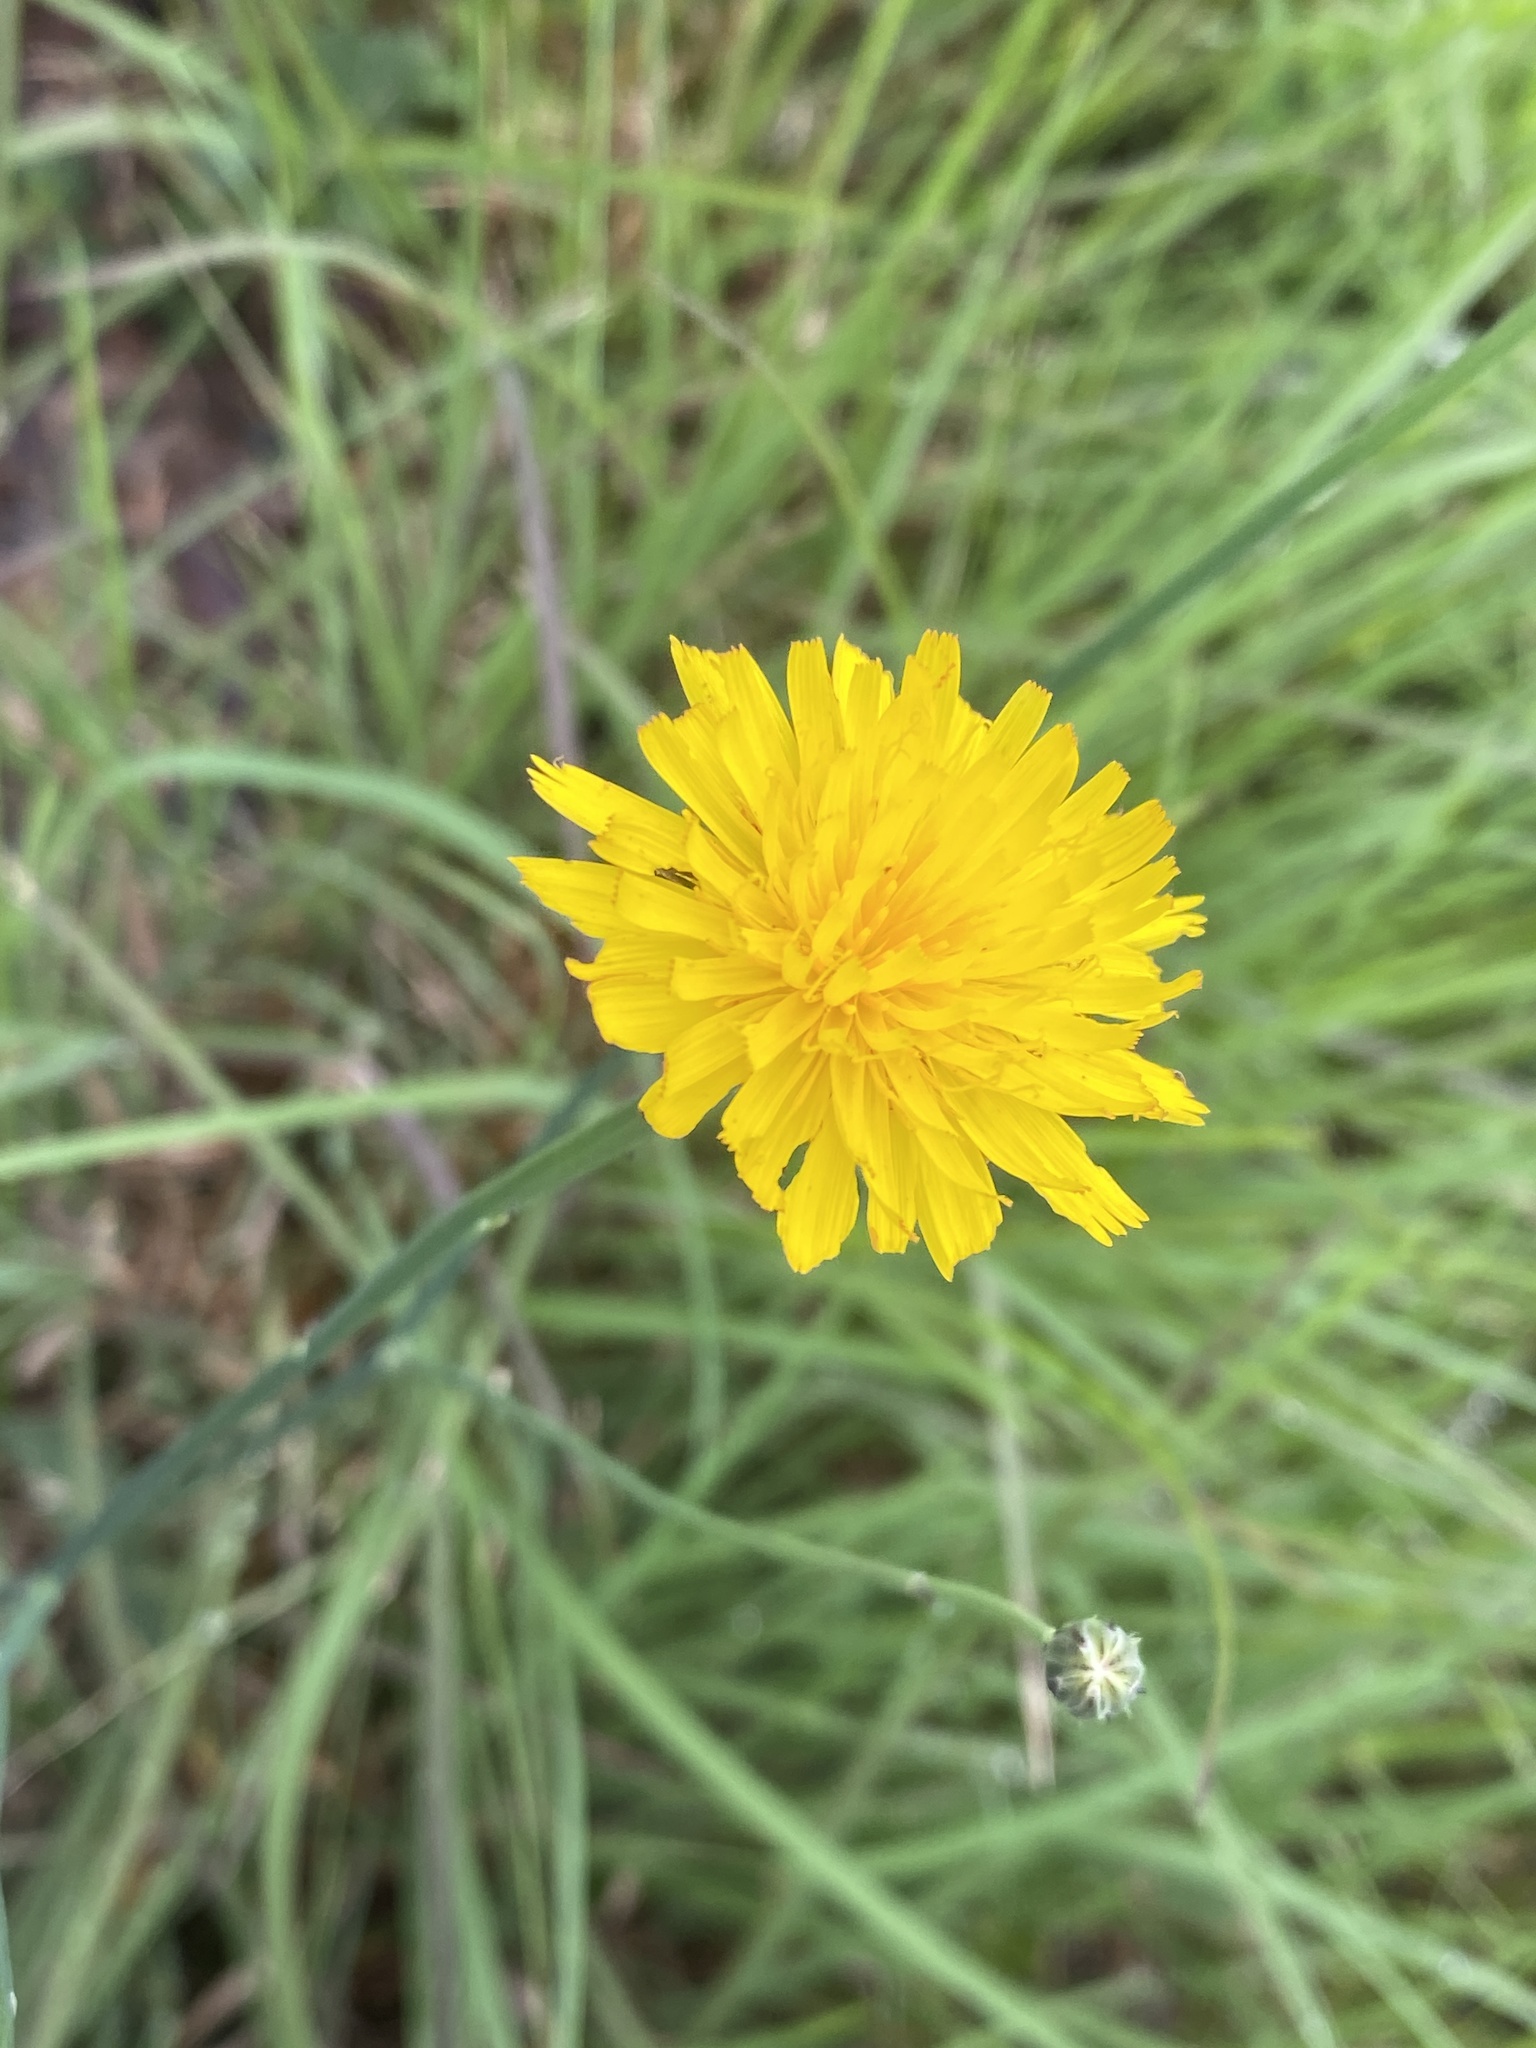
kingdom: Plantae
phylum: Tracheophyta
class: Magnoliopsida
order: Asterales
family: Asteraceae
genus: Hypochaeris
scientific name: Hypochaeris radicata
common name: Flatweed
